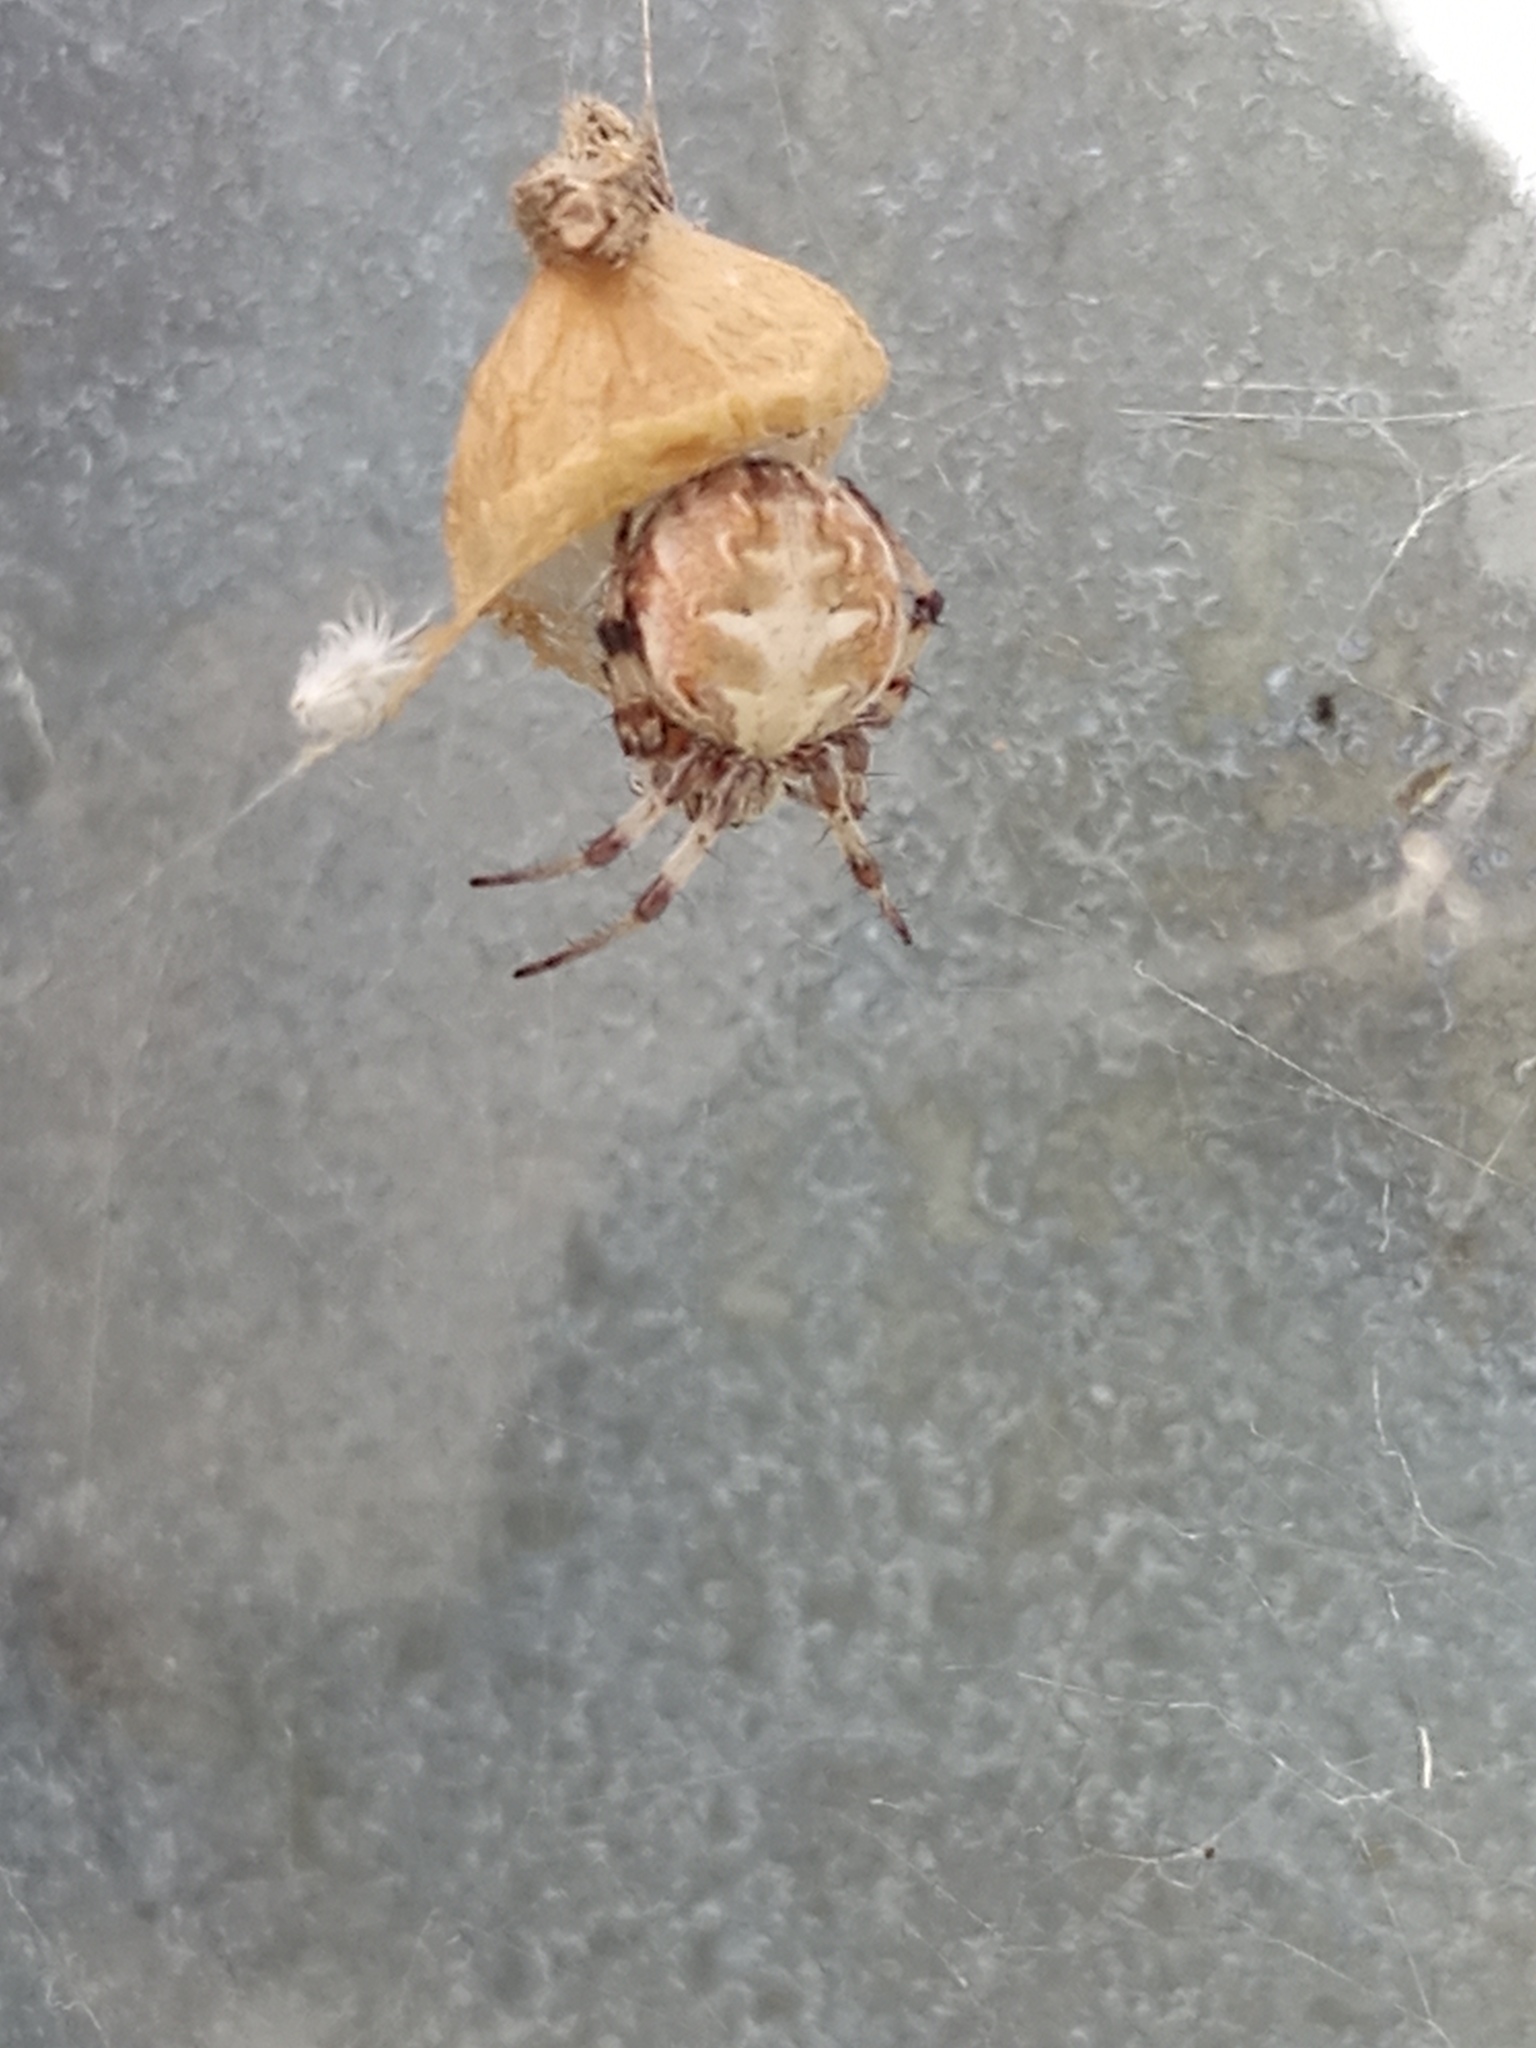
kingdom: Animalia
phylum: Arthropoda
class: Arachnida
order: Araneae
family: Araneidae
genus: Metepeira
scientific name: Metepeira
